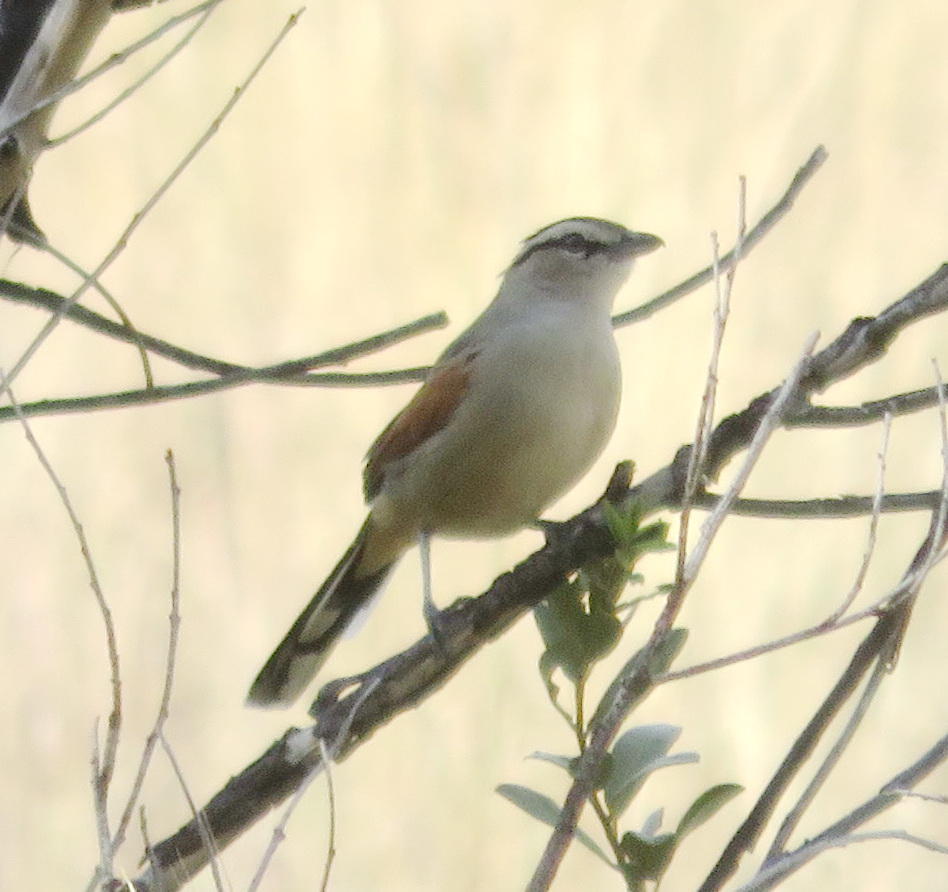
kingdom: Animalia
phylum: Chordata
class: Aves
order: Passeriformes
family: Malaconotidae
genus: Tchagra
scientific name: Tchagra australis
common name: Brown-crowned tchagra
